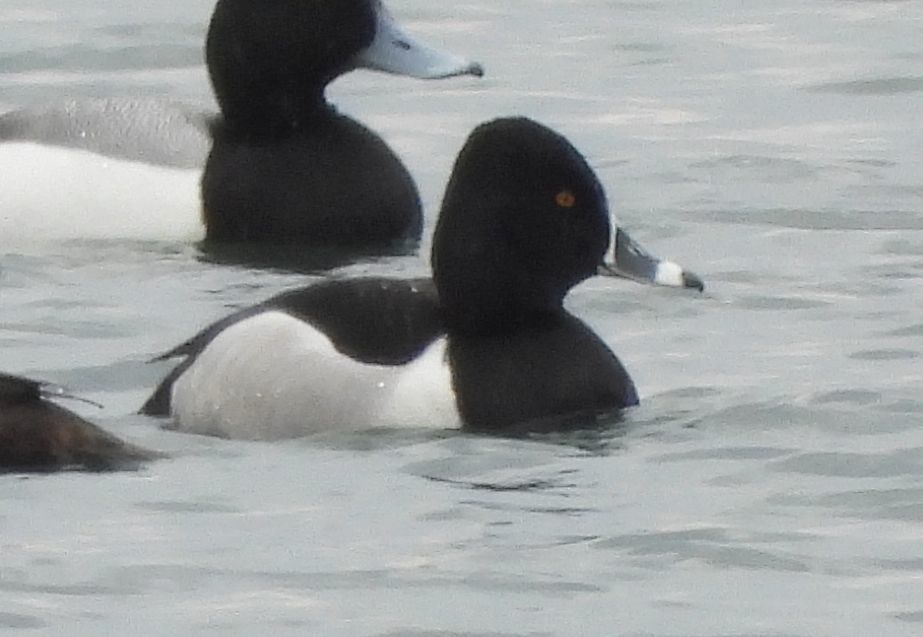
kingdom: Animalia
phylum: Chordata
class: Aves
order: Anseriformes
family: Anatidae
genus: Aythya
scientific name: Aythya collaris
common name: Ring-necked duck
